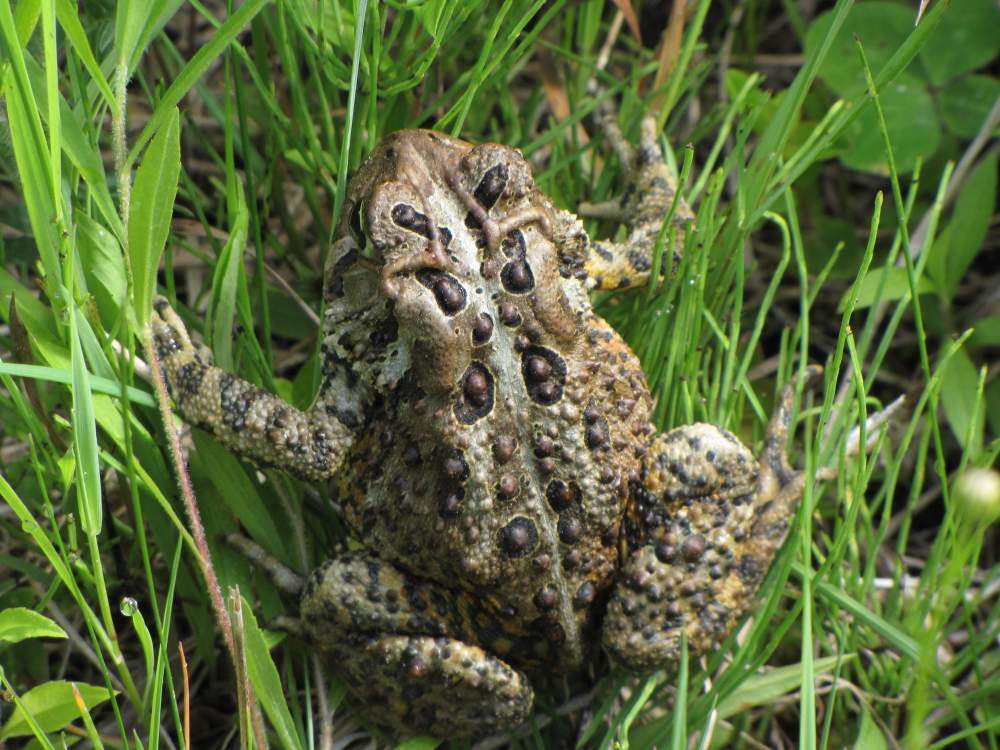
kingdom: Animalia
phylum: Chordata
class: Amphibia
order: Anura
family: Bufonidae
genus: Anaxyrus
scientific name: Anaxyrus americanus
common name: American toad
